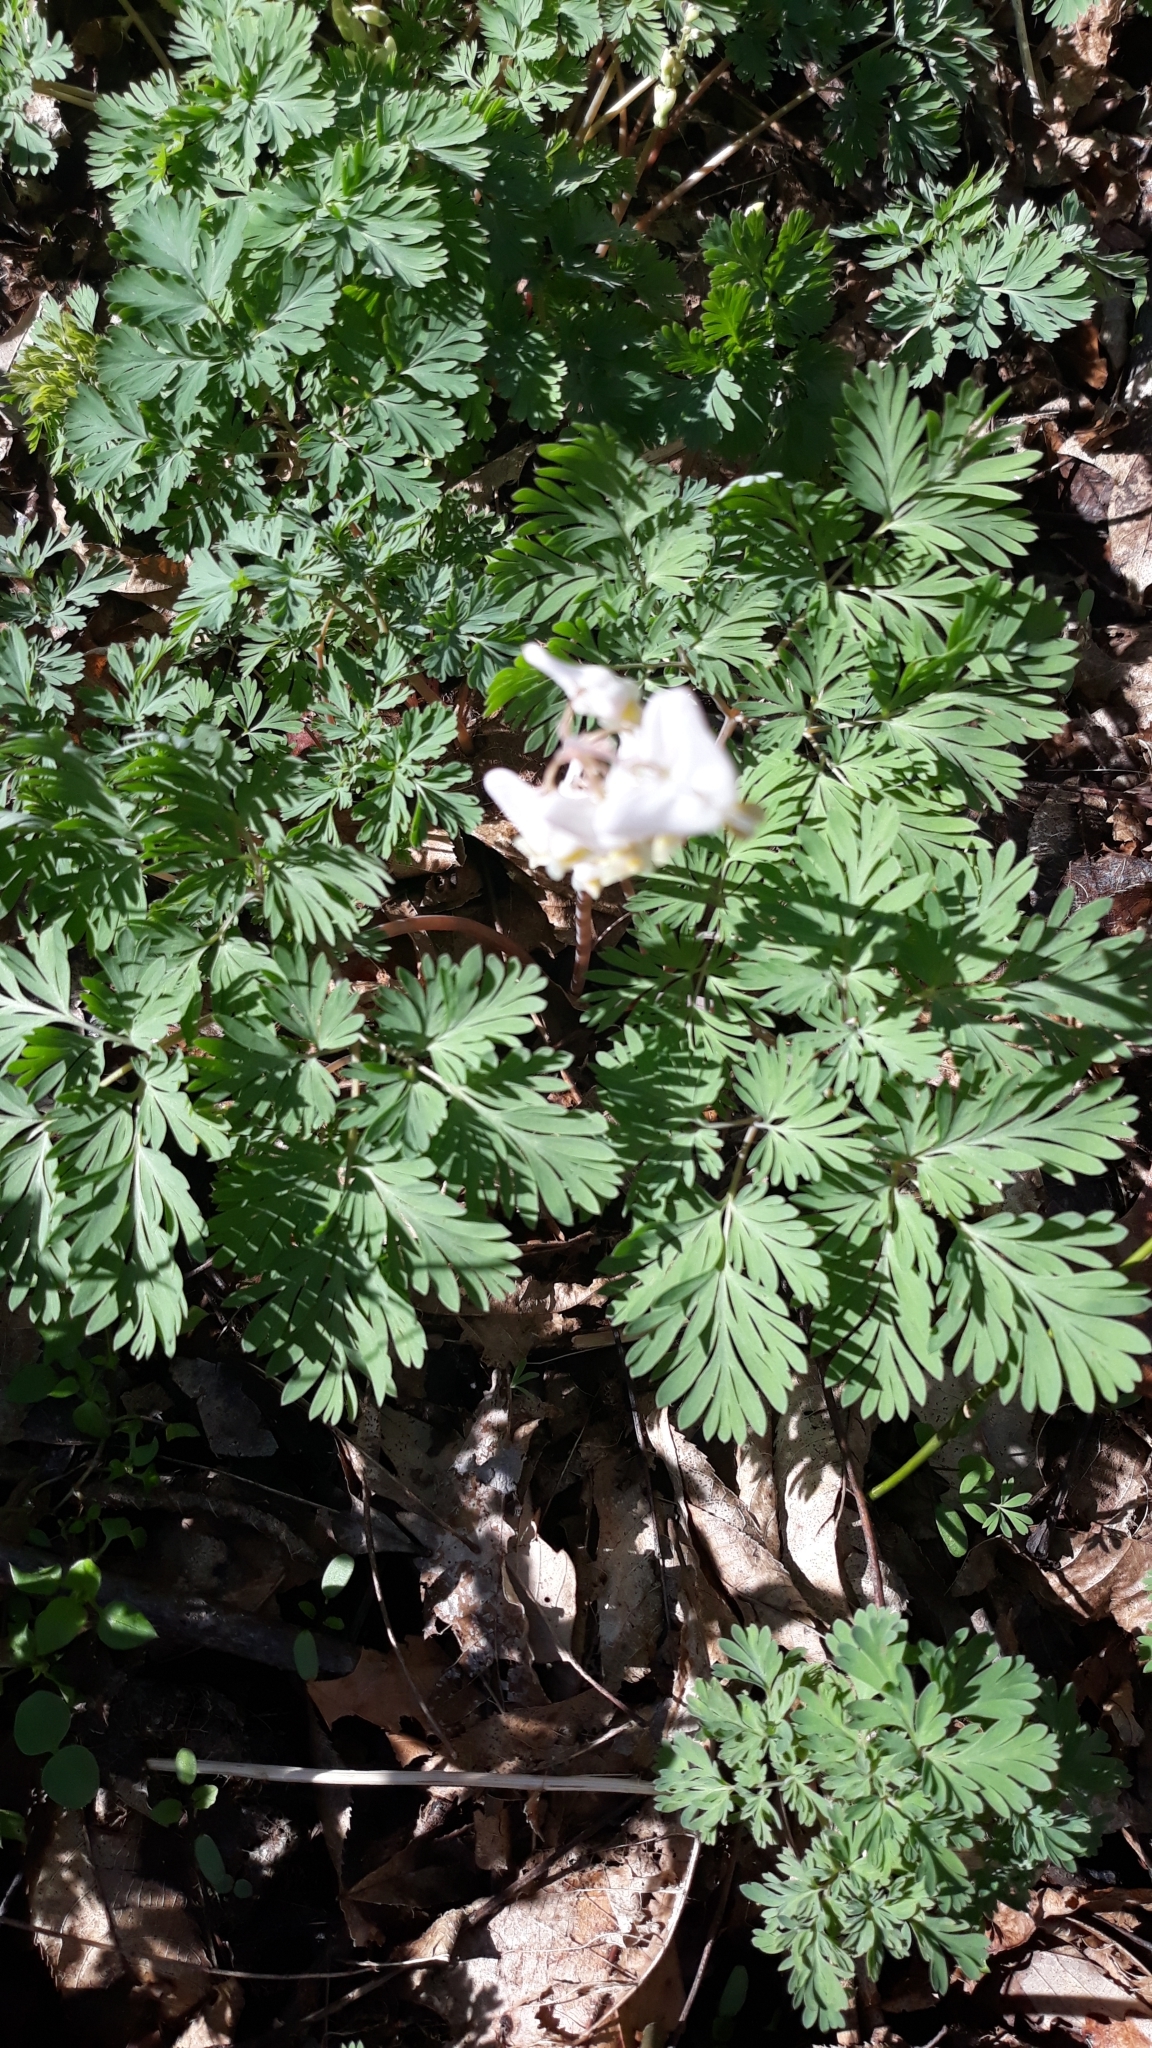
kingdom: Plantae
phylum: Tracheophyta
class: Magnoliopsida
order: Ranunculales
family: Papaveraceae
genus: Dicentra
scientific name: Dicentra cucullaria
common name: Dutchman's breeches
